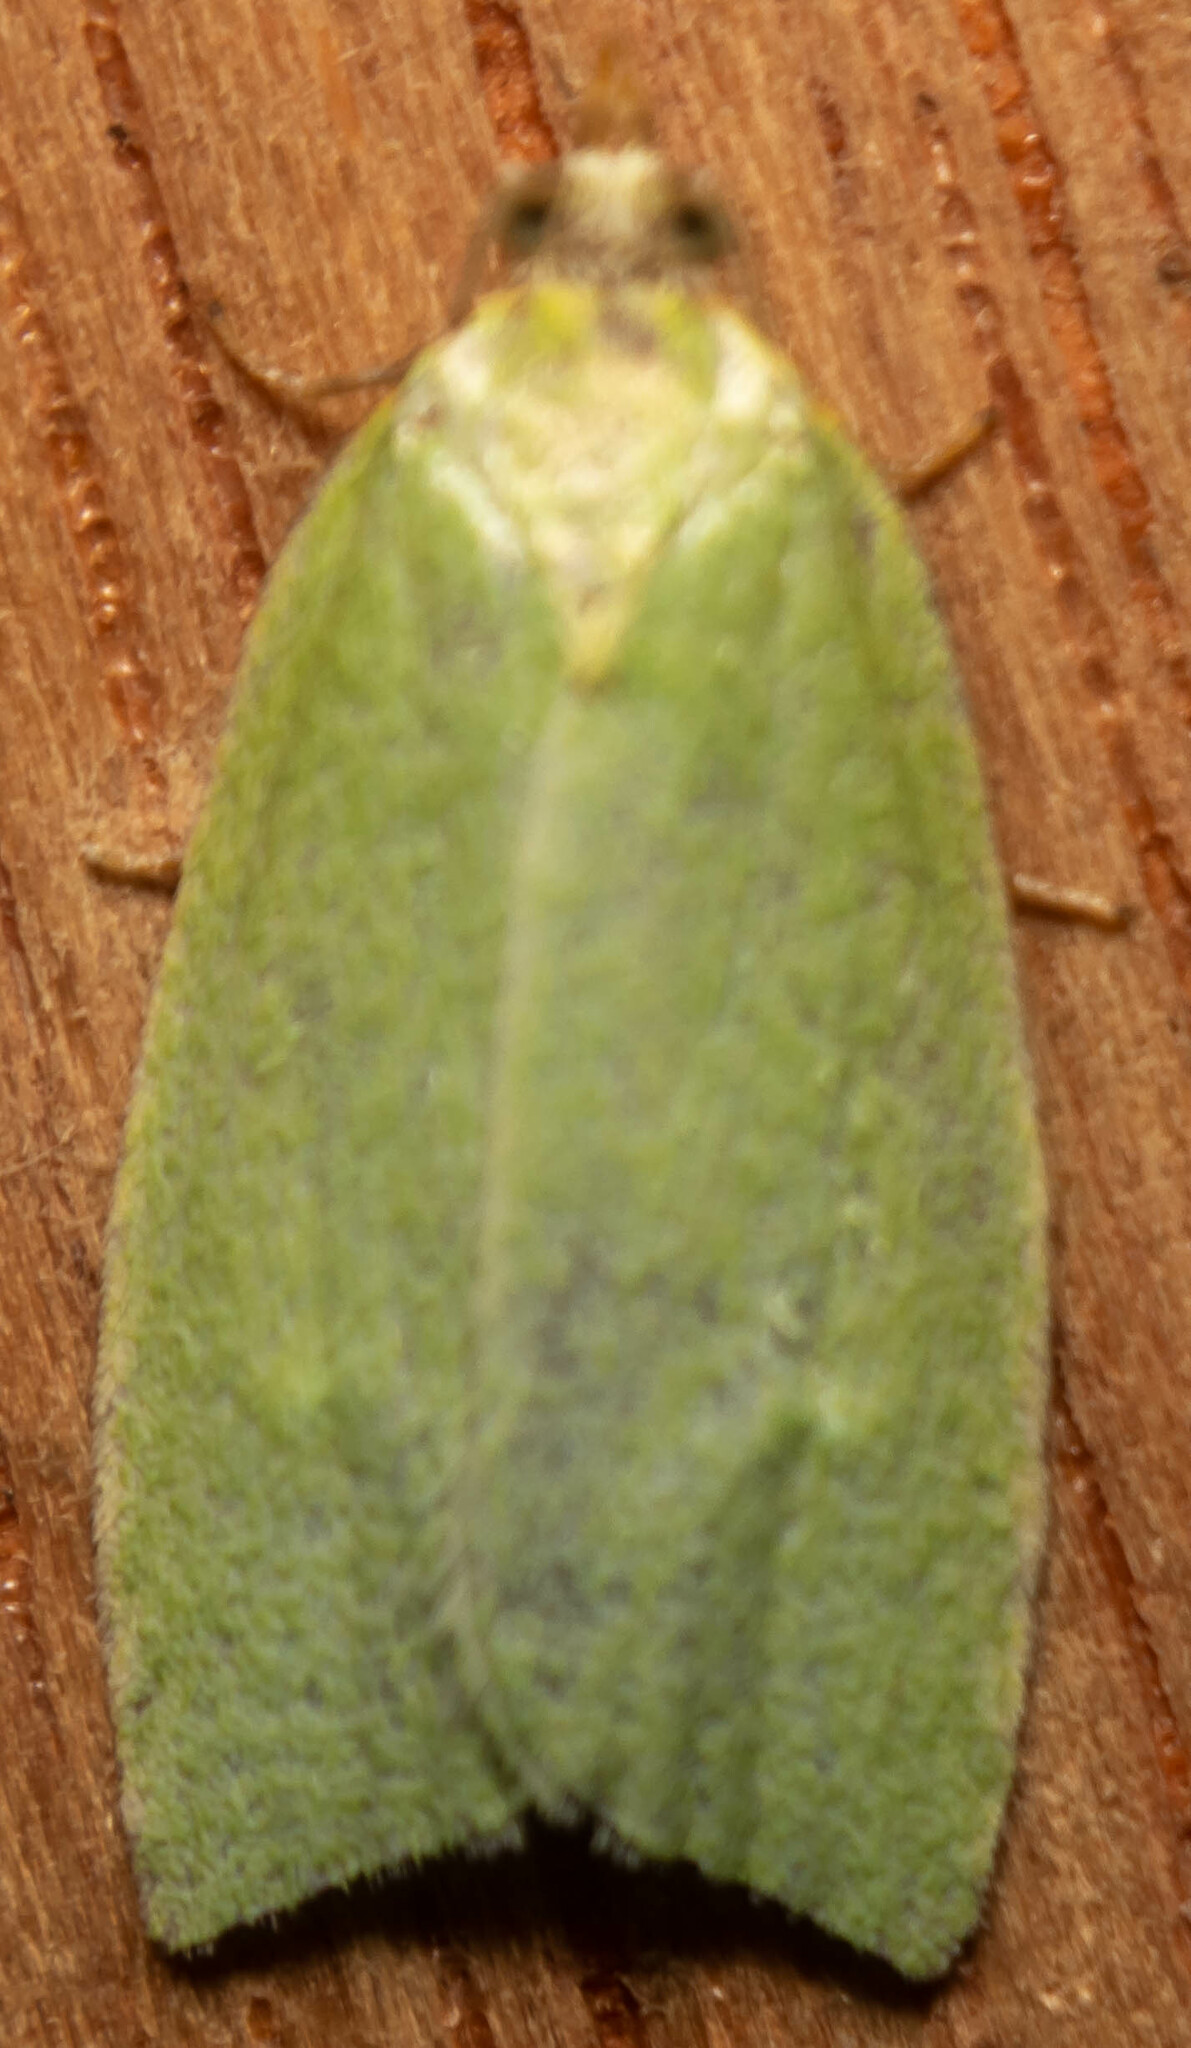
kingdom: Animalia
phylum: Arthropoda
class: Insecta
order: Lepidoptera
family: Tortricidae
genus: Tortrix
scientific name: Tortrix viridana
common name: Green oak tortrix
